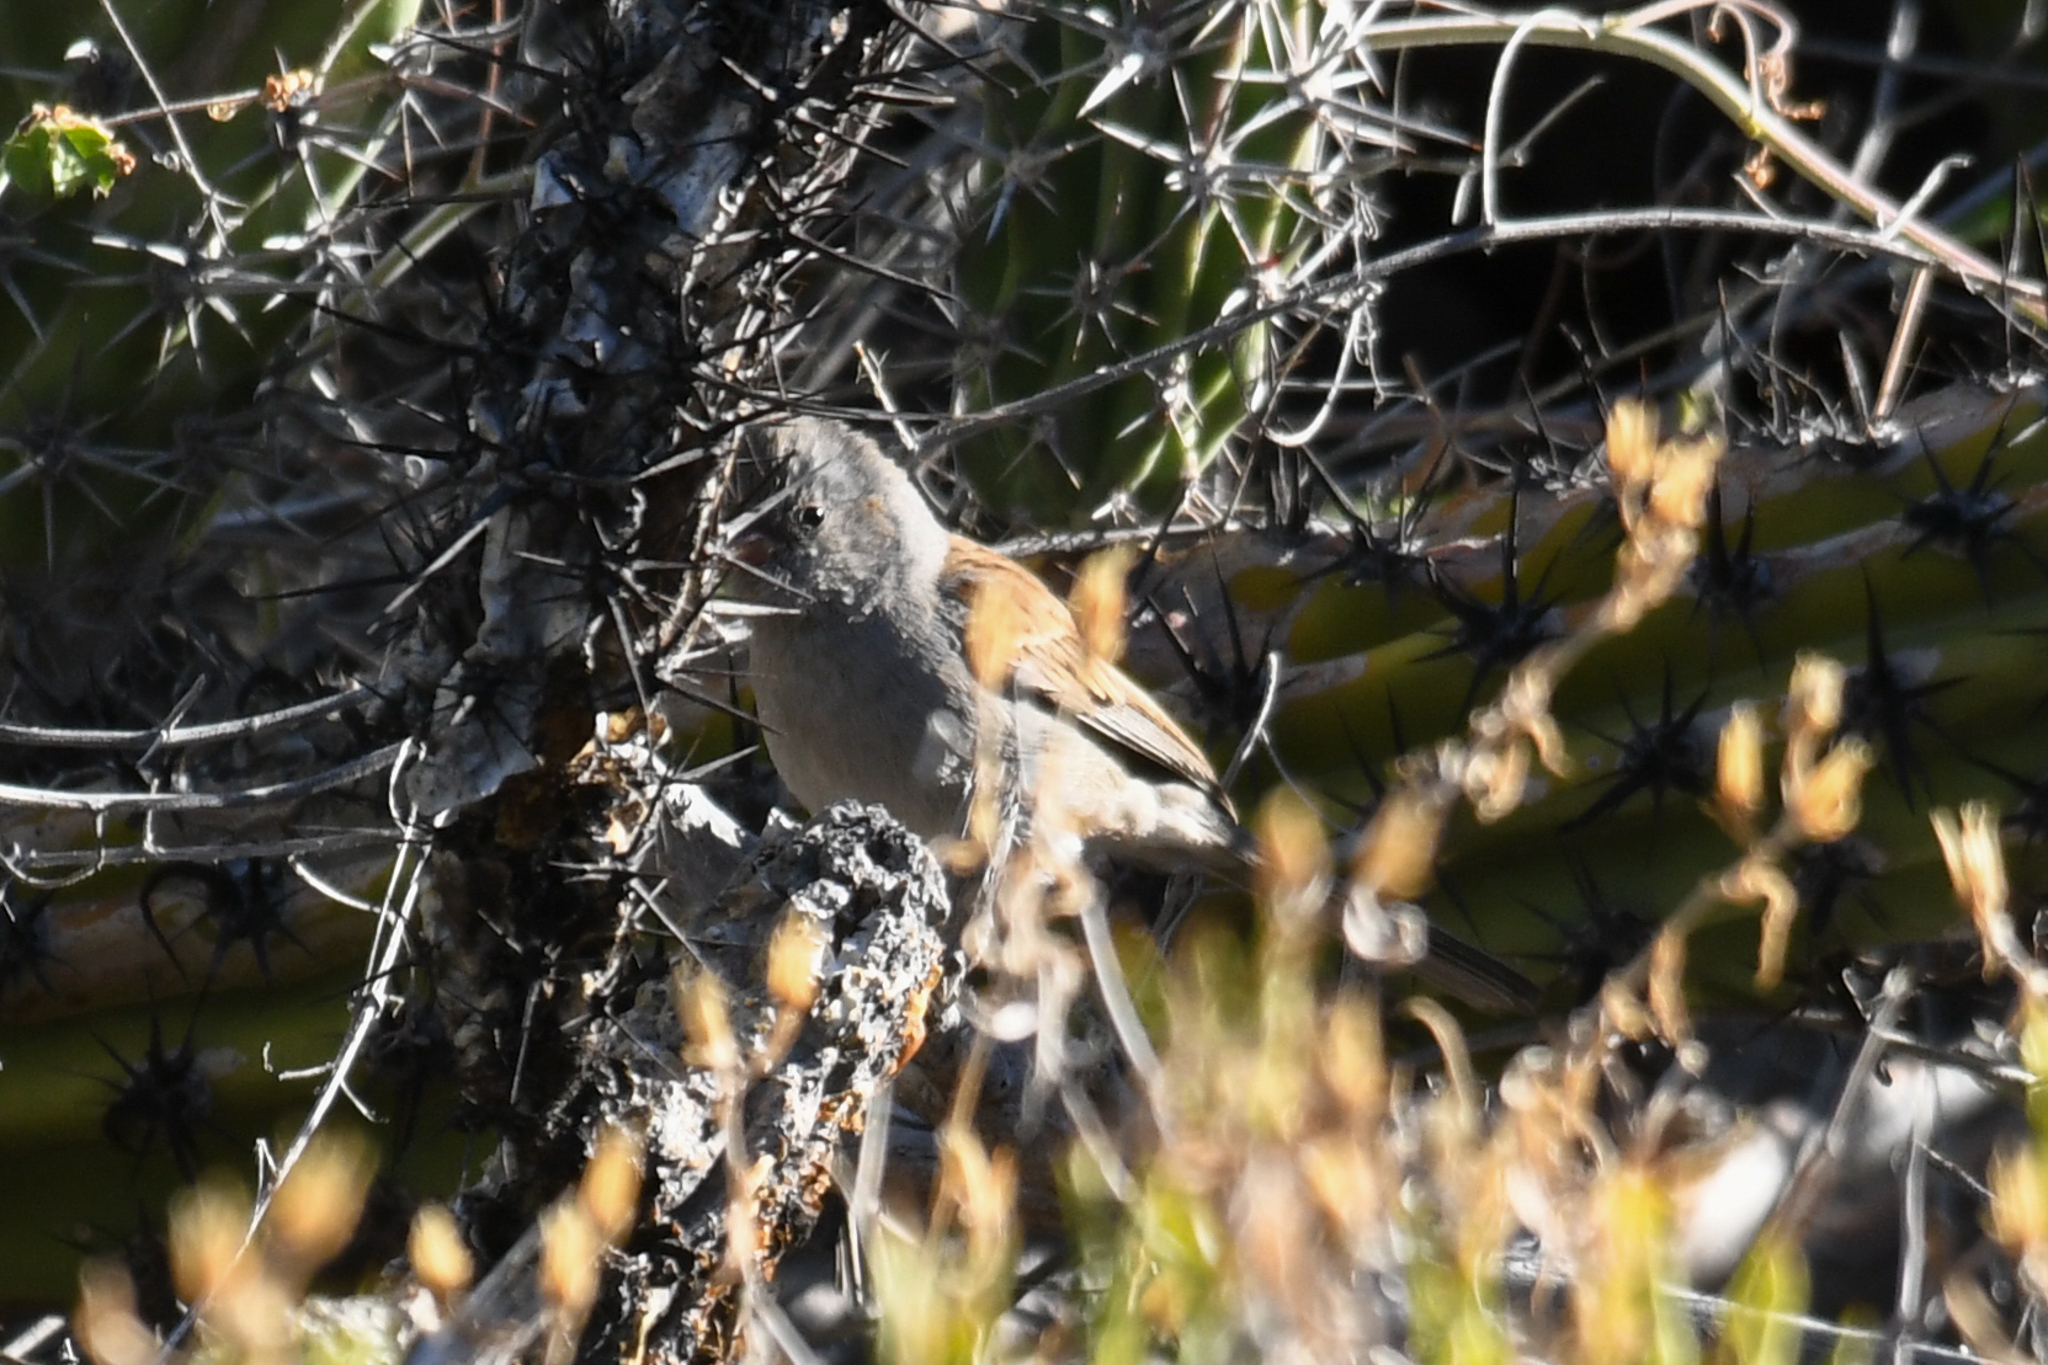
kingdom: Animalia
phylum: Chordata
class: Aves
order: Passeriformes
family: Passerellidae
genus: Spizella
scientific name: Spizella atrogularis
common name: Black-chinned sparrow
